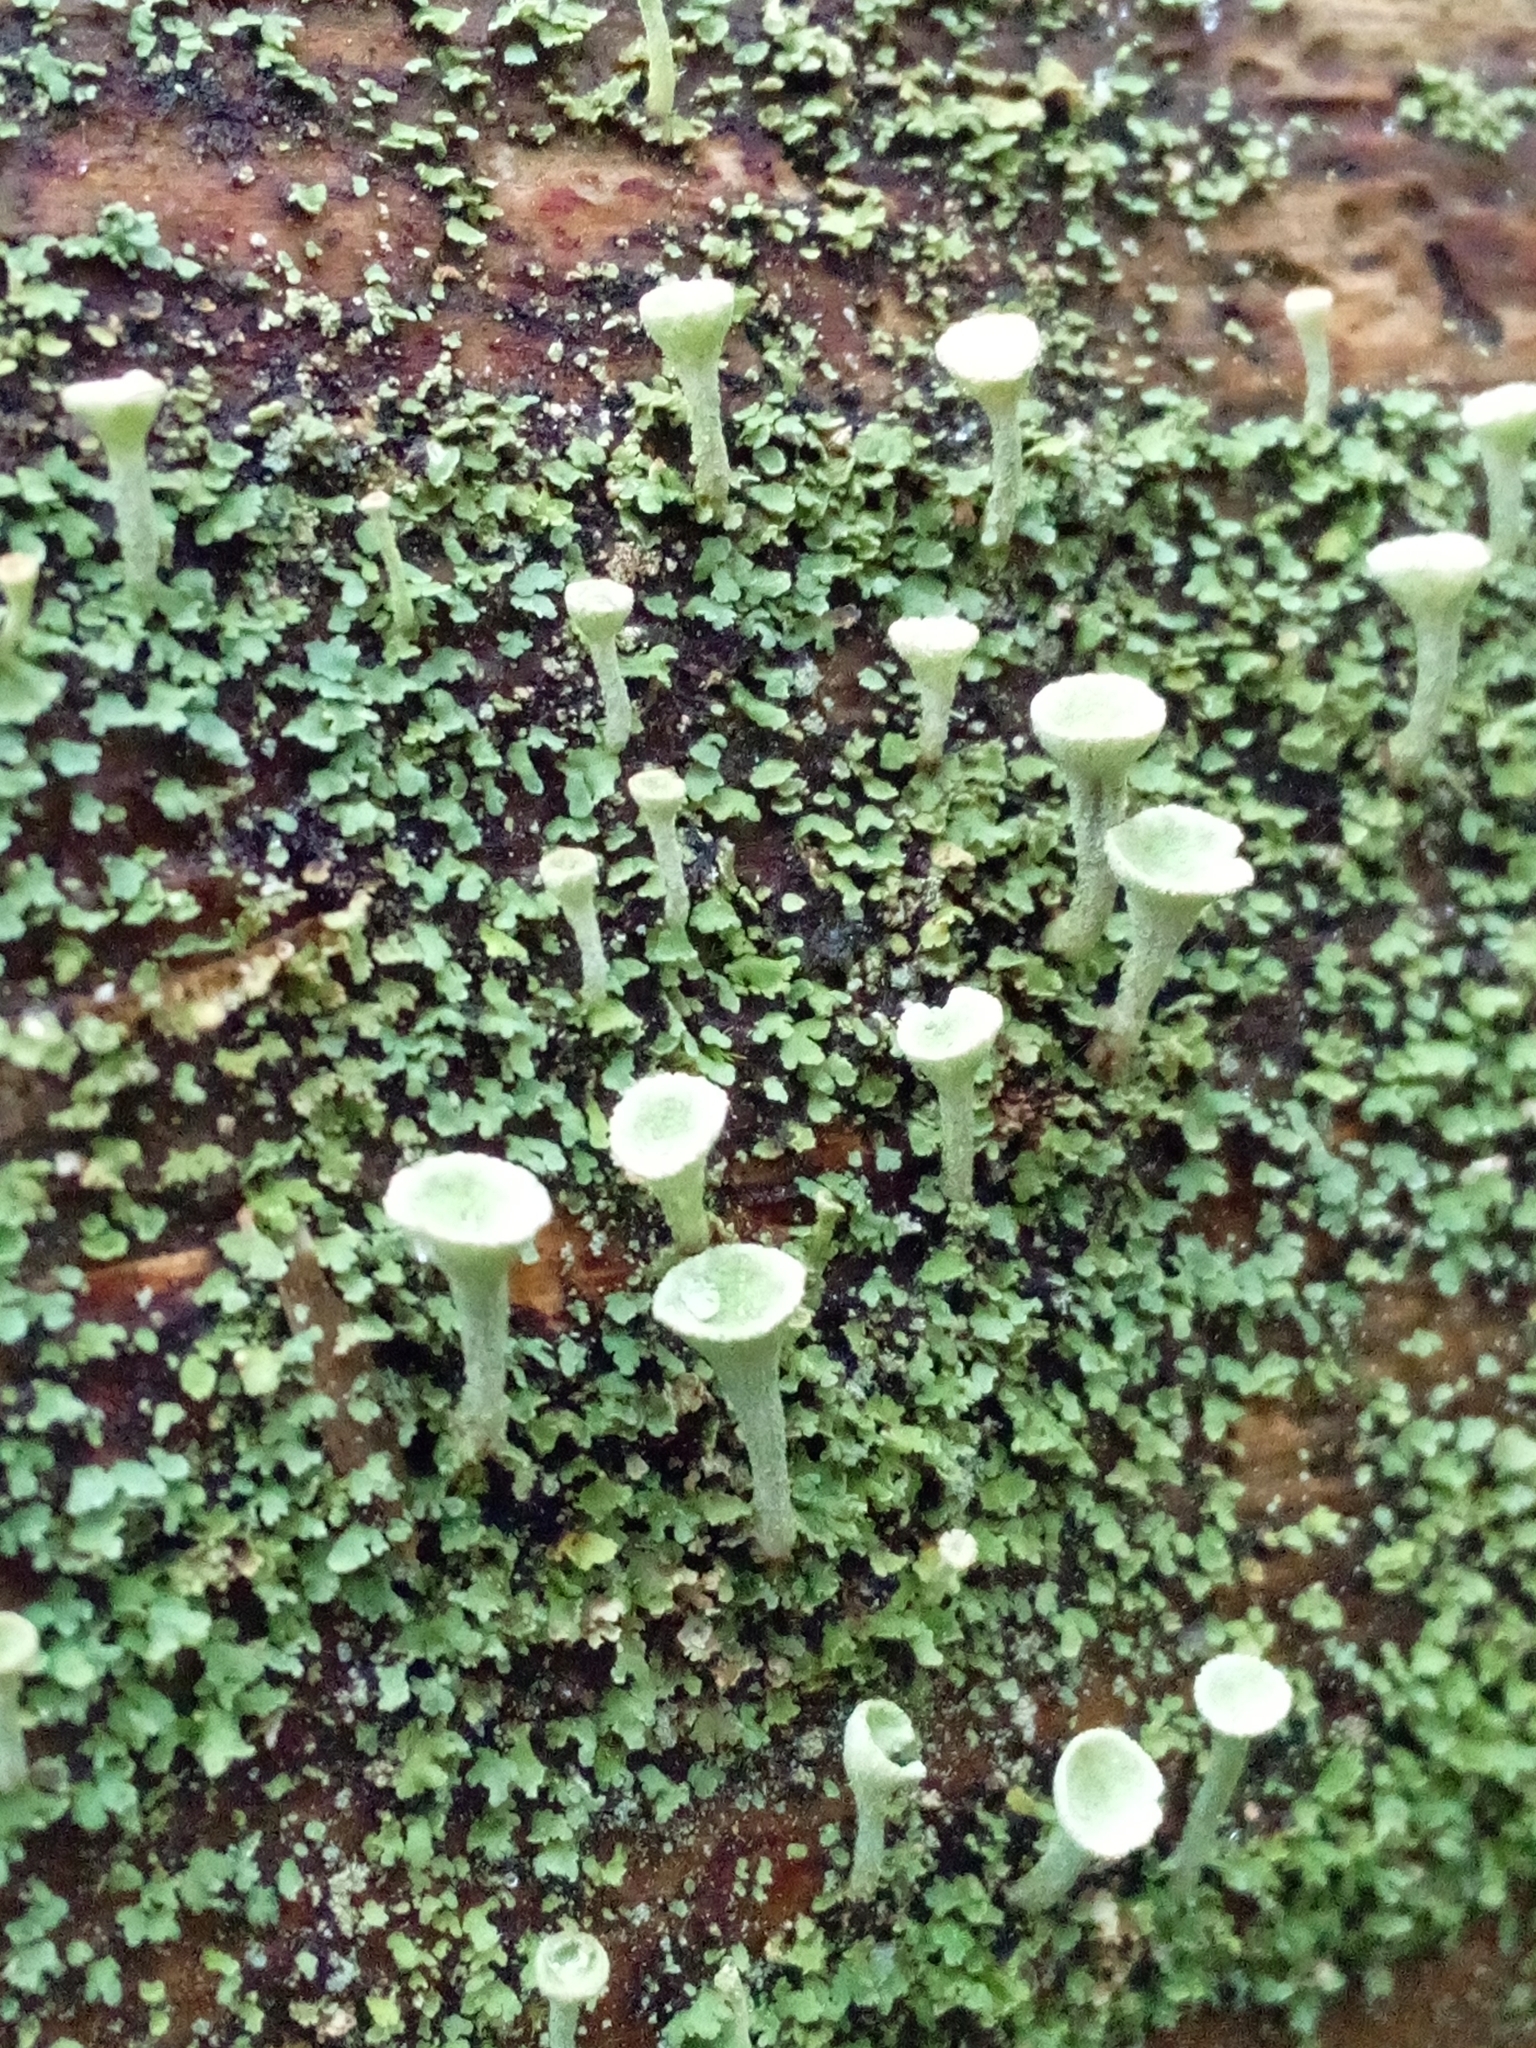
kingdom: Fungi
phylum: Ascomycota
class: Lecanoromycetes
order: Lecanorales
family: Cladoniaceae
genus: Cladonia
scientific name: Cladonia fimbriata
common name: Powdered trumpet lichen
